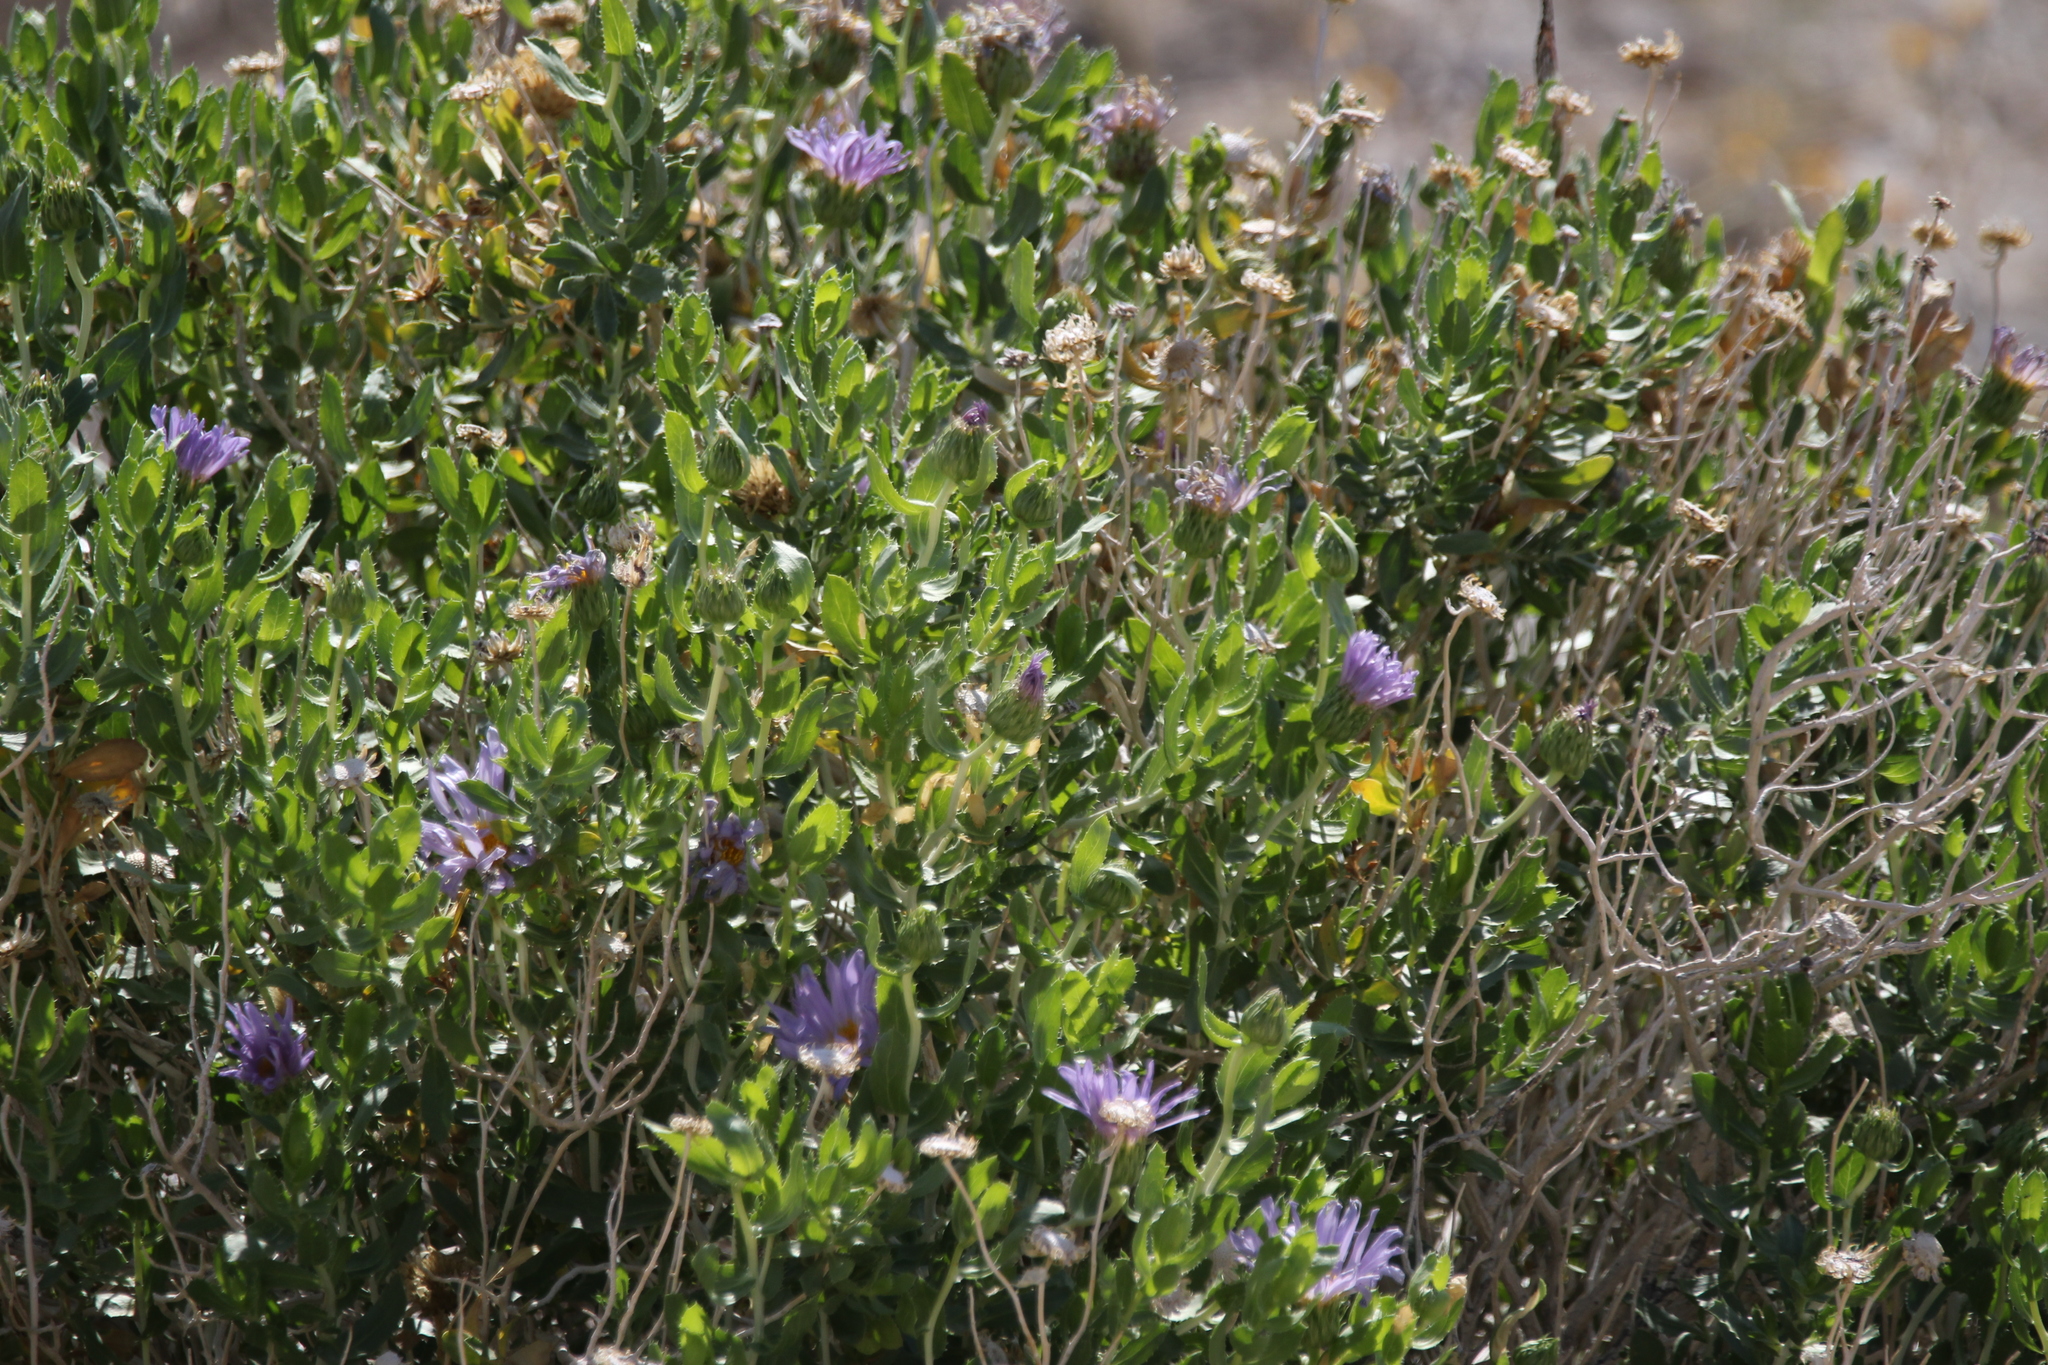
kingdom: Plantae
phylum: Tracheophyta
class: Magnoliopsida
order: Asterales
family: Asteraceae
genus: Xylorhiza
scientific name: Xylorhiza orcuttii
